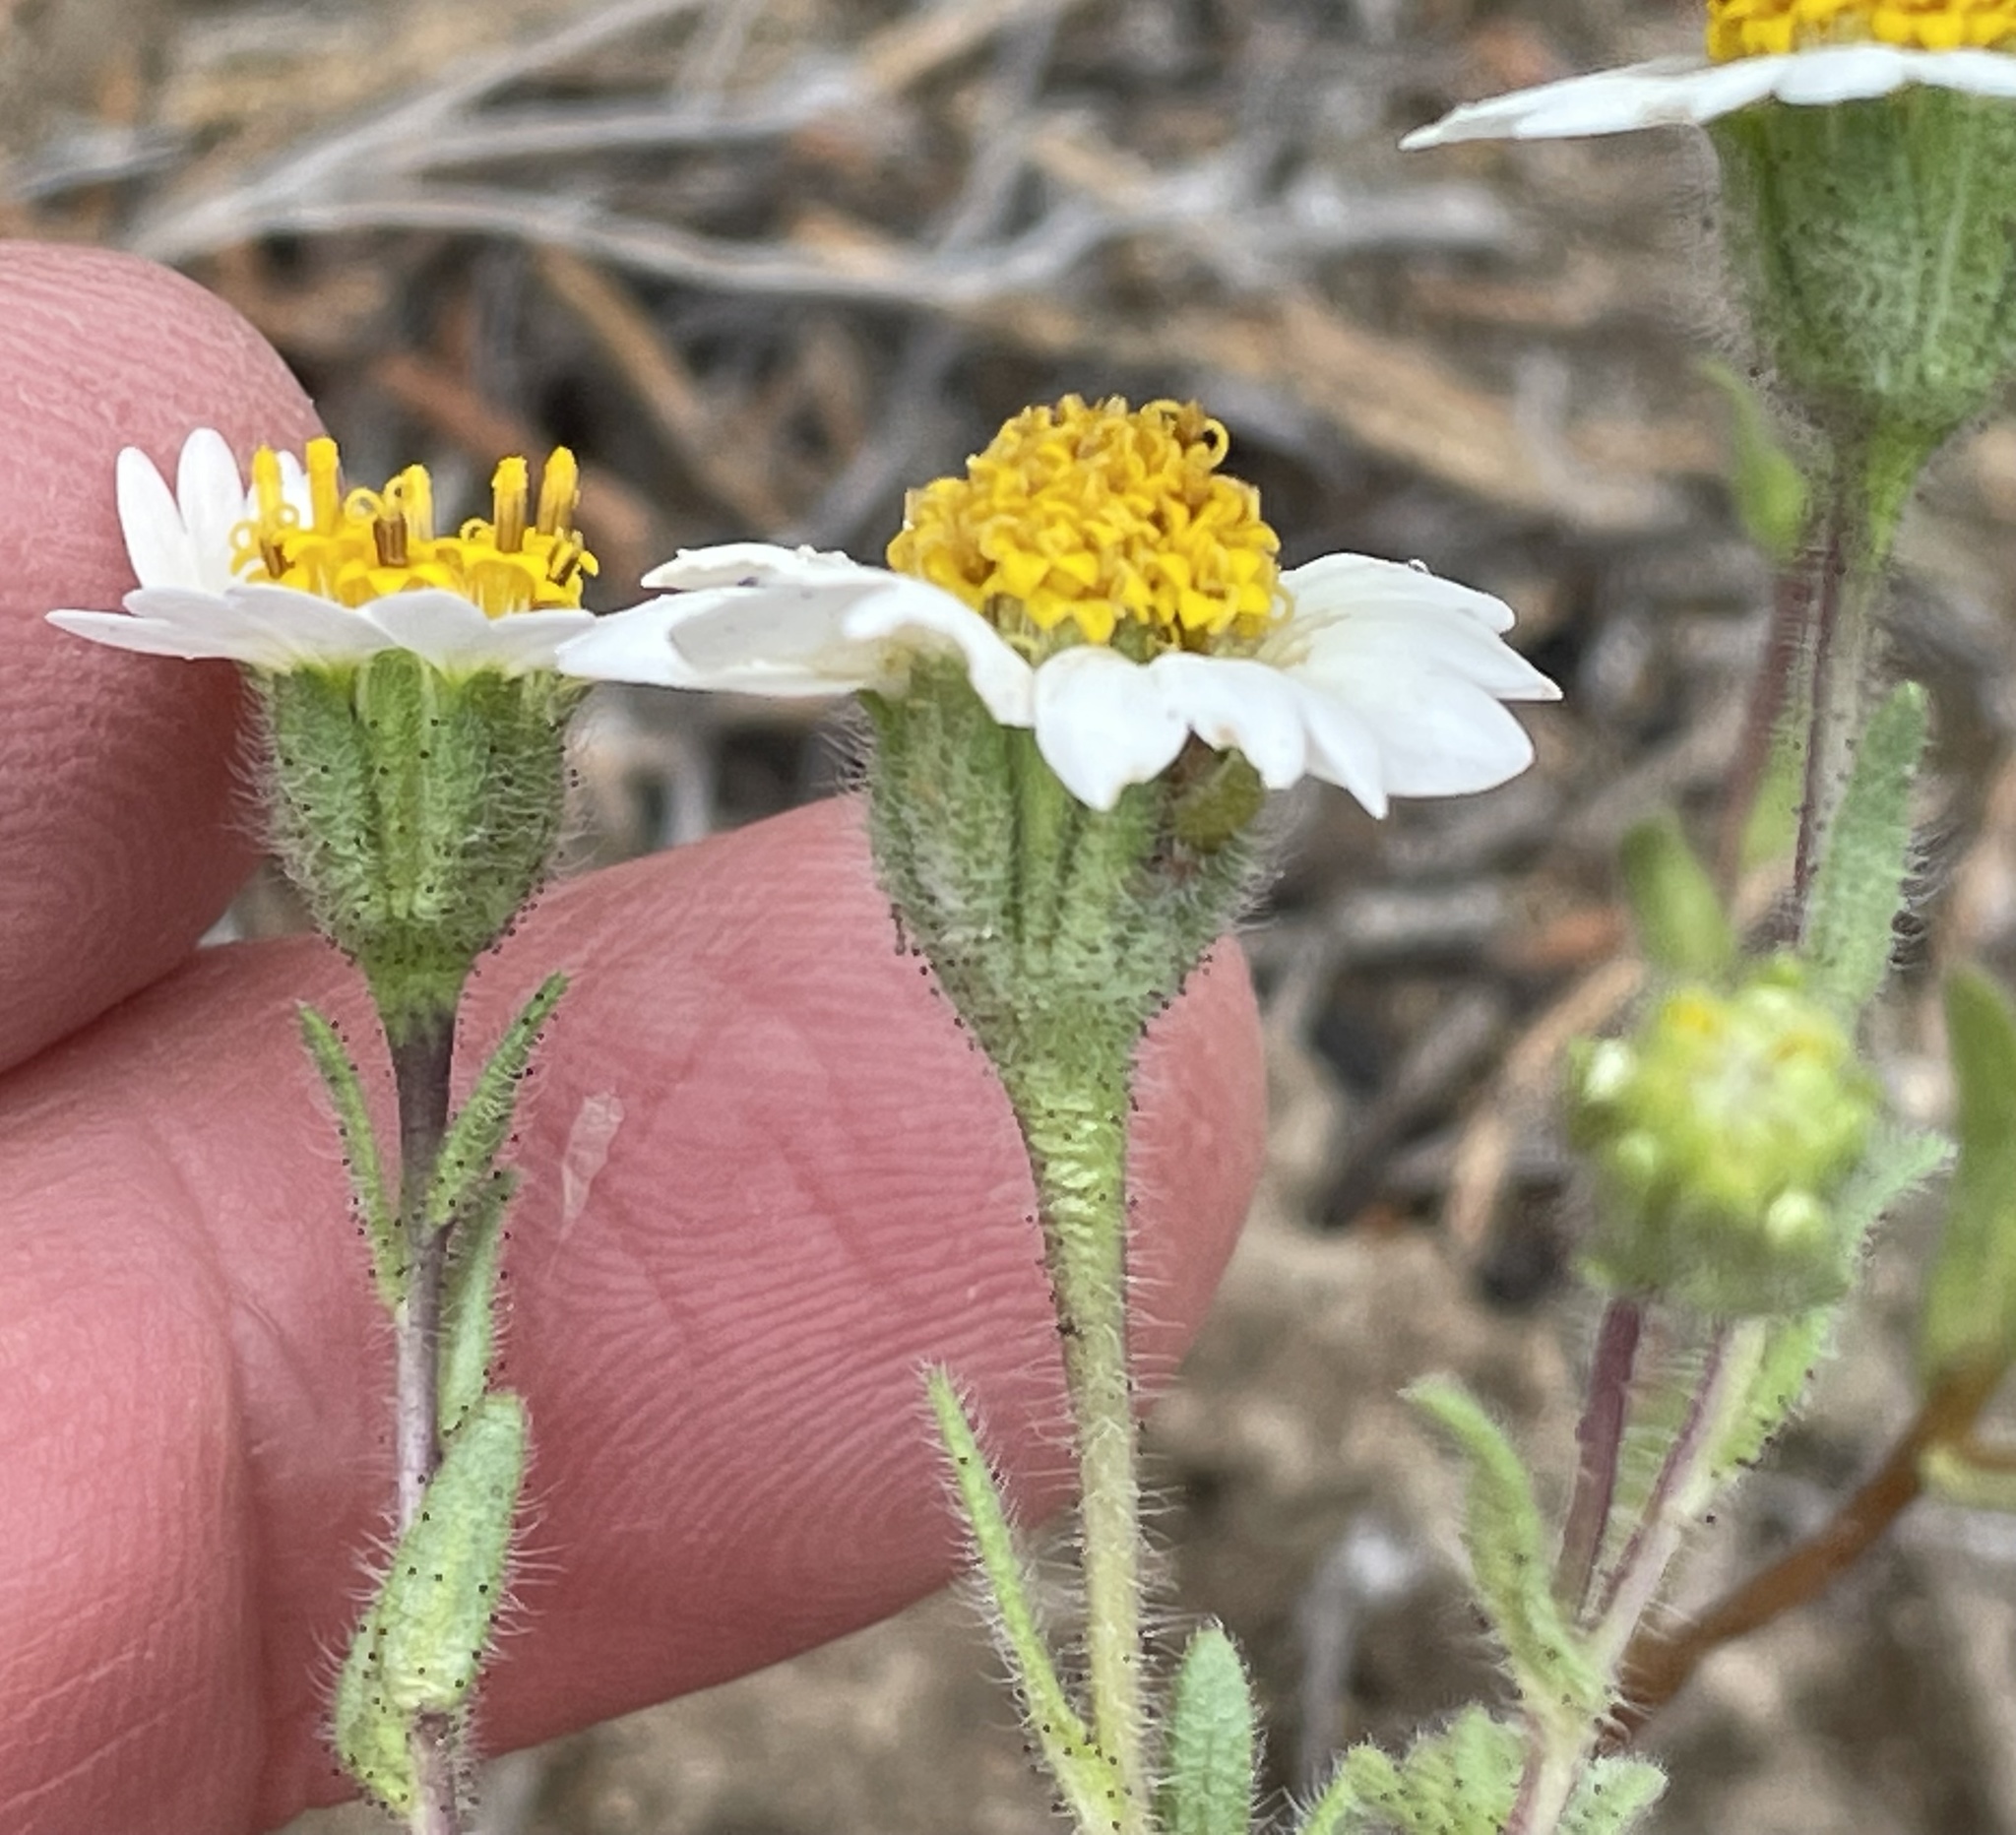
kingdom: Plantae
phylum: Tracheophyta
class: Magnoliopsida
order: Asterales
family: Asteraceae
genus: Layia
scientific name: Layia glandulosa
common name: White layia
